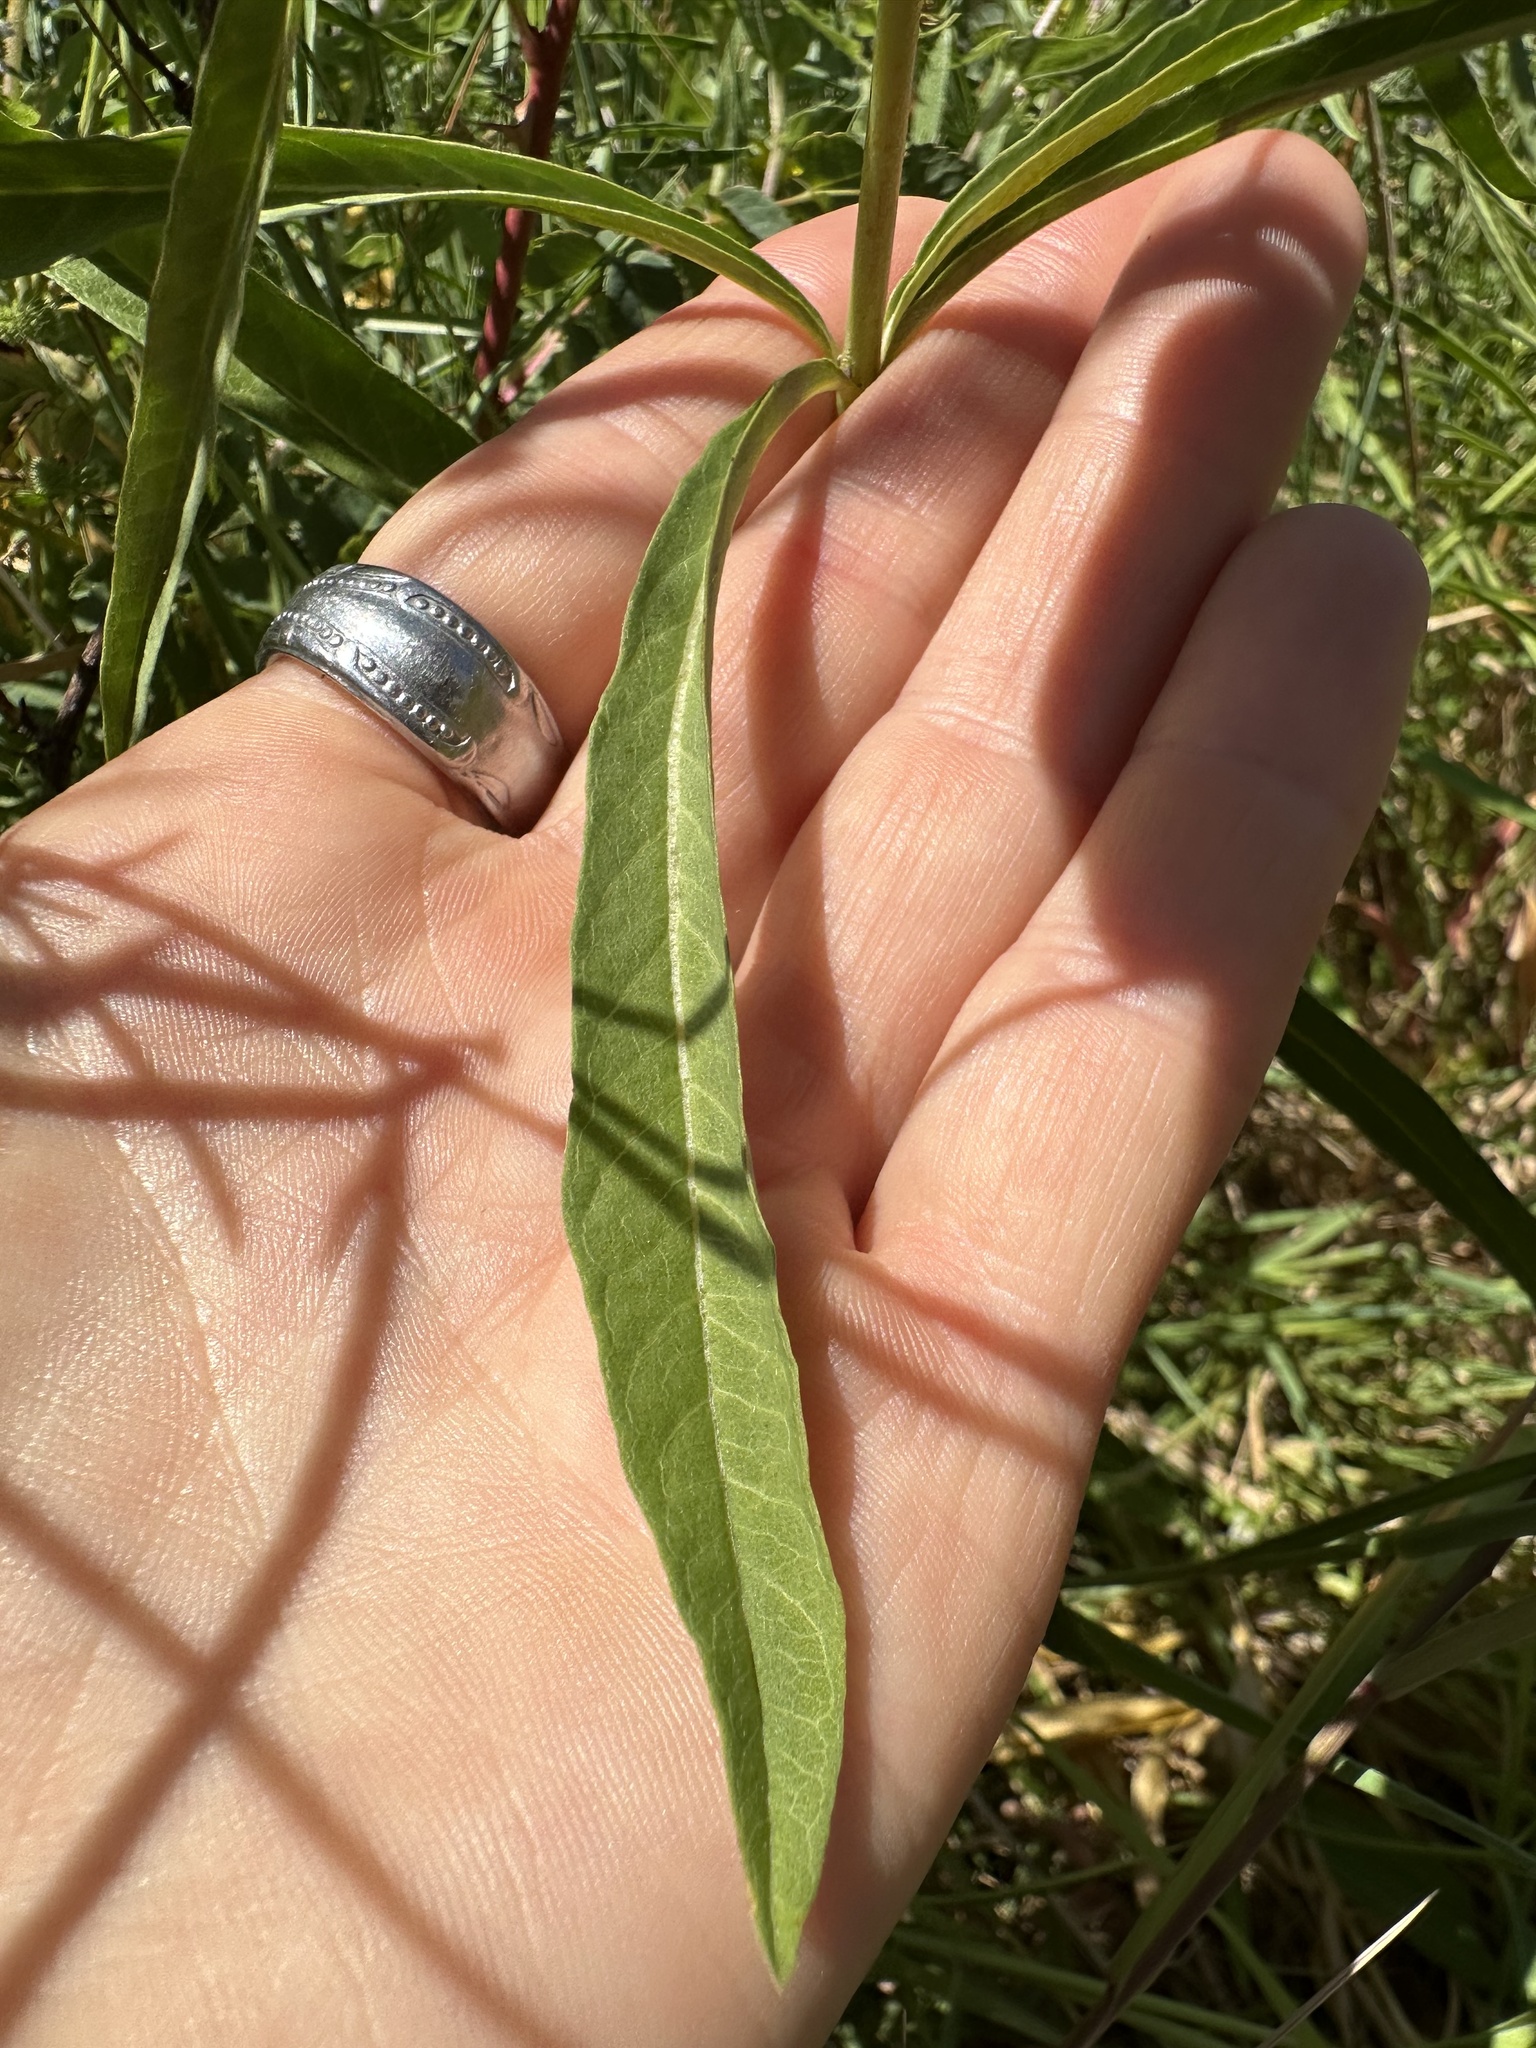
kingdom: Plantae
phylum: Tracheophyta
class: Magnoliopsida
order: Gentianales
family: Apocynaceae
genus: Asclepias
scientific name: Asclepias fascicularis
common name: Mexican milkweed
